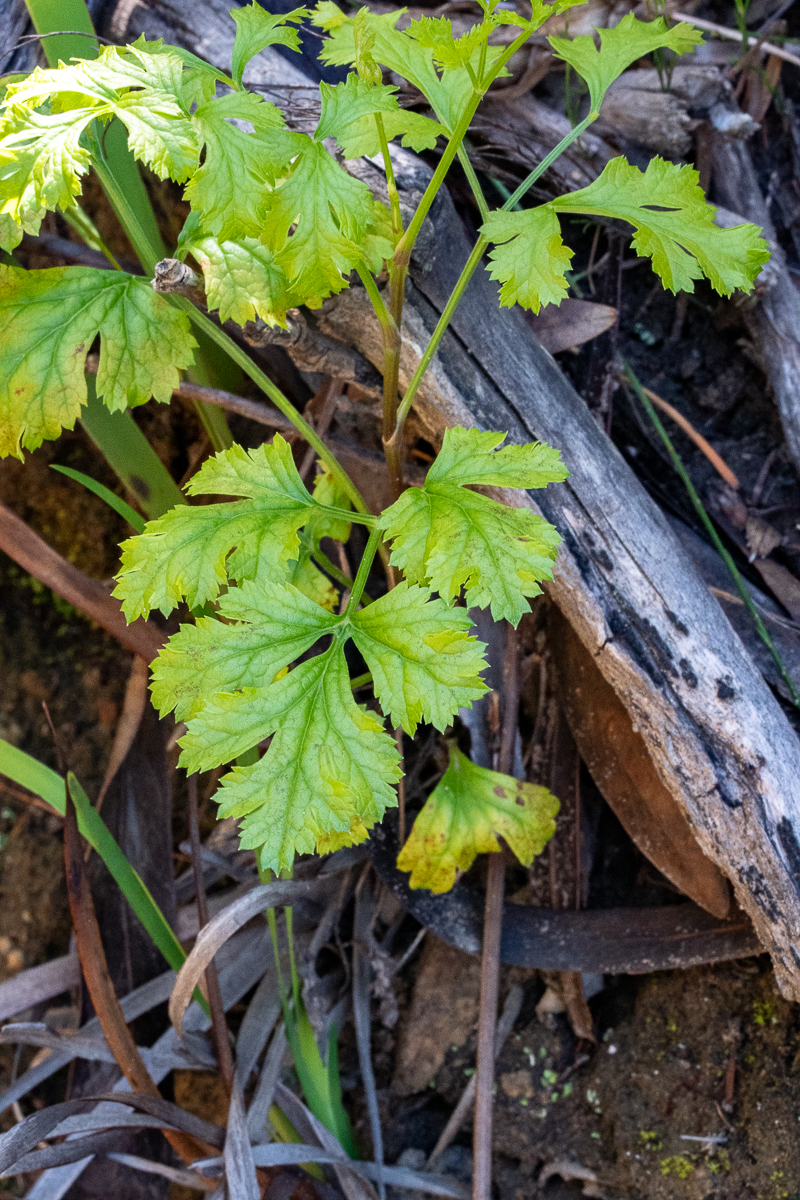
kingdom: Plantae
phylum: Tracheophyta
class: Magnoliopsida
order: Apiales
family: Apiaceae
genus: Glia
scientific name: Glia prolifera
